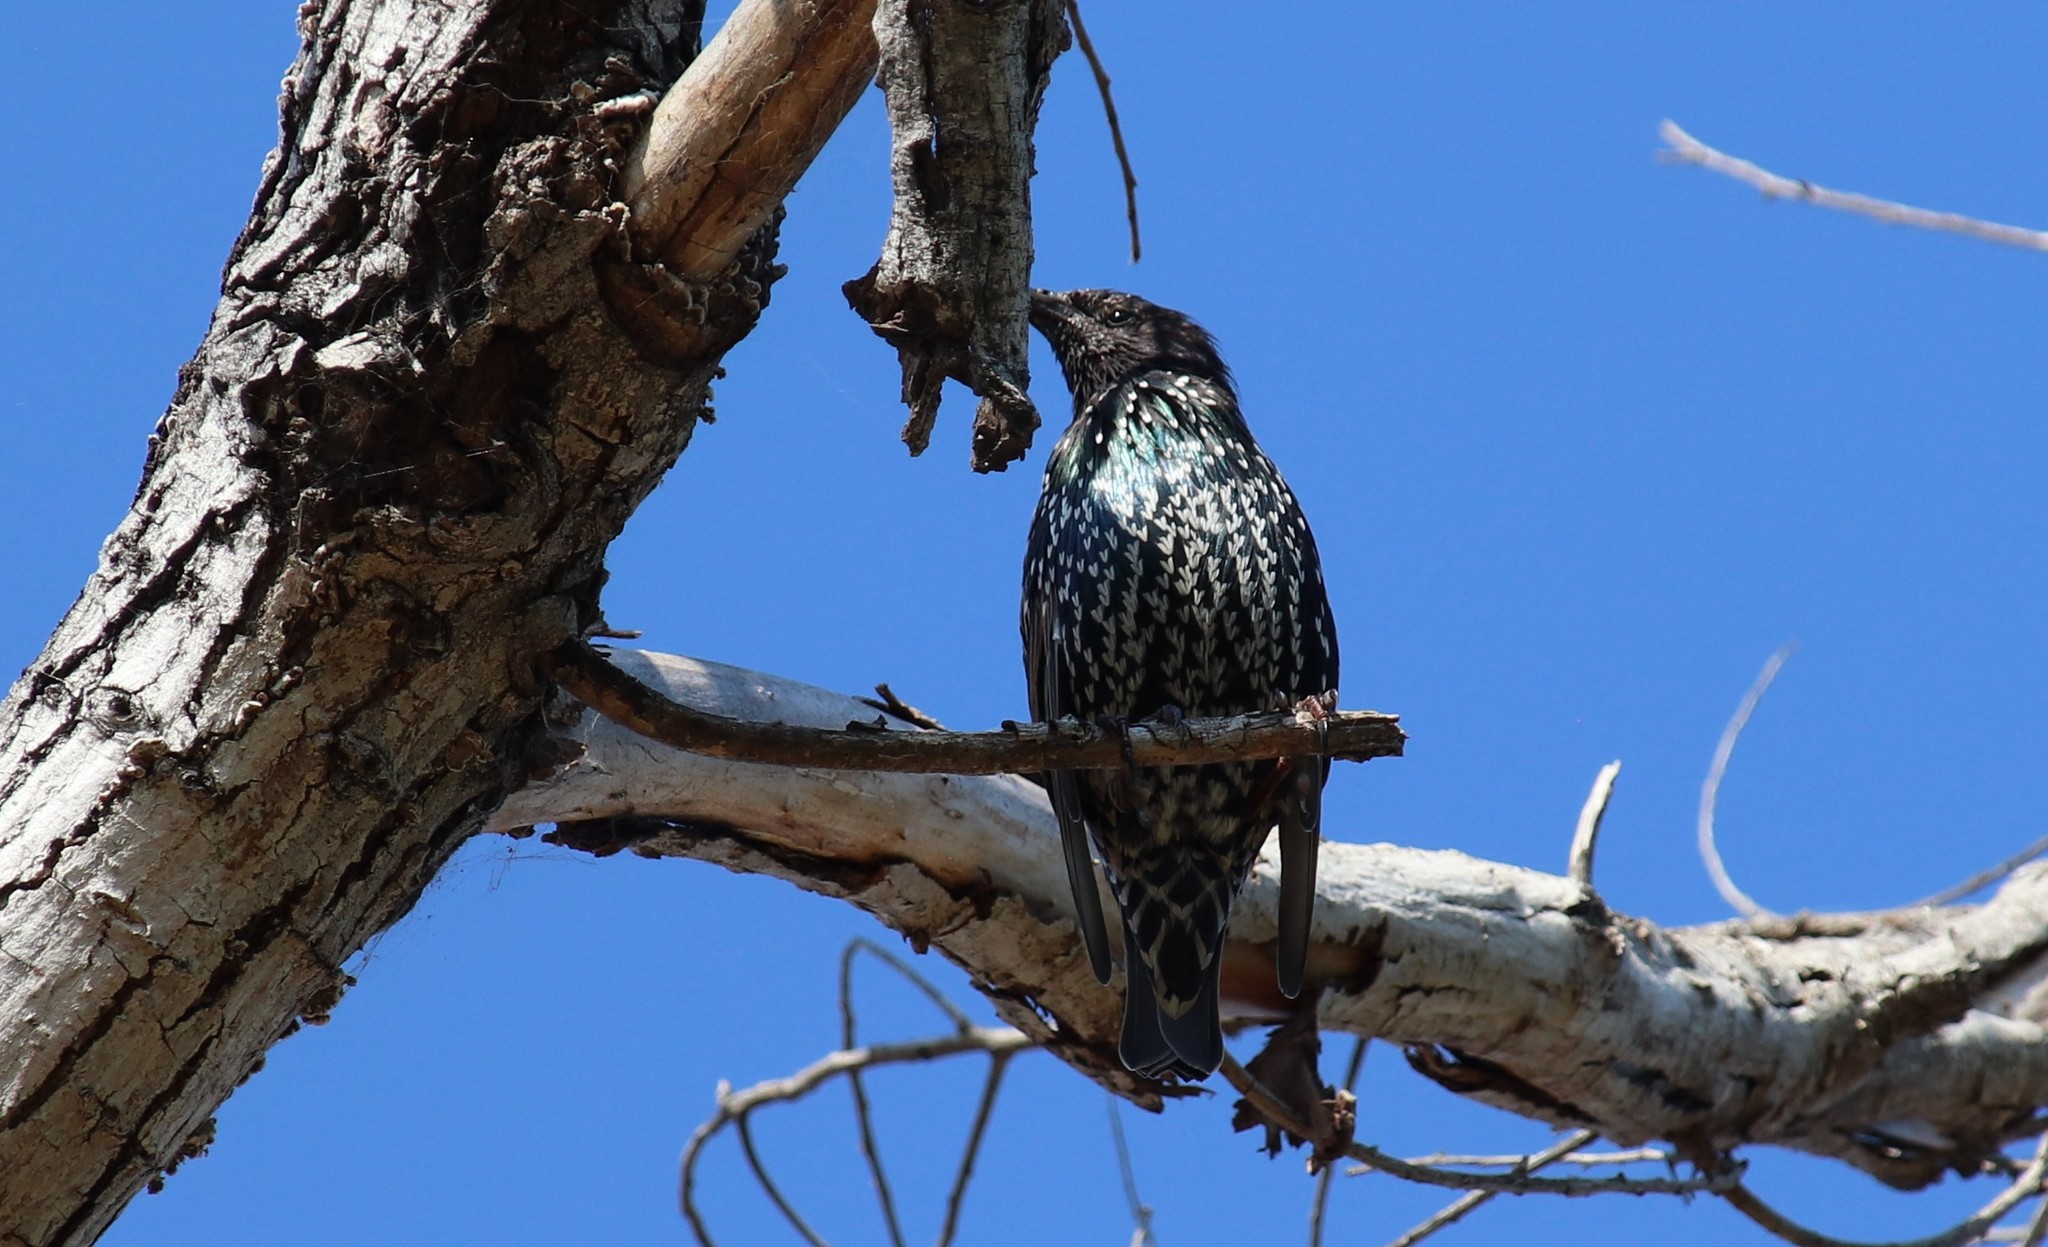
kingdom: Animalia
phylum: Chordata
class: Aves
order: Passeriformes
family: Sturnidae
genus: Sturnus
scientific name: Sturnus vulgaris
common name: Common starling
